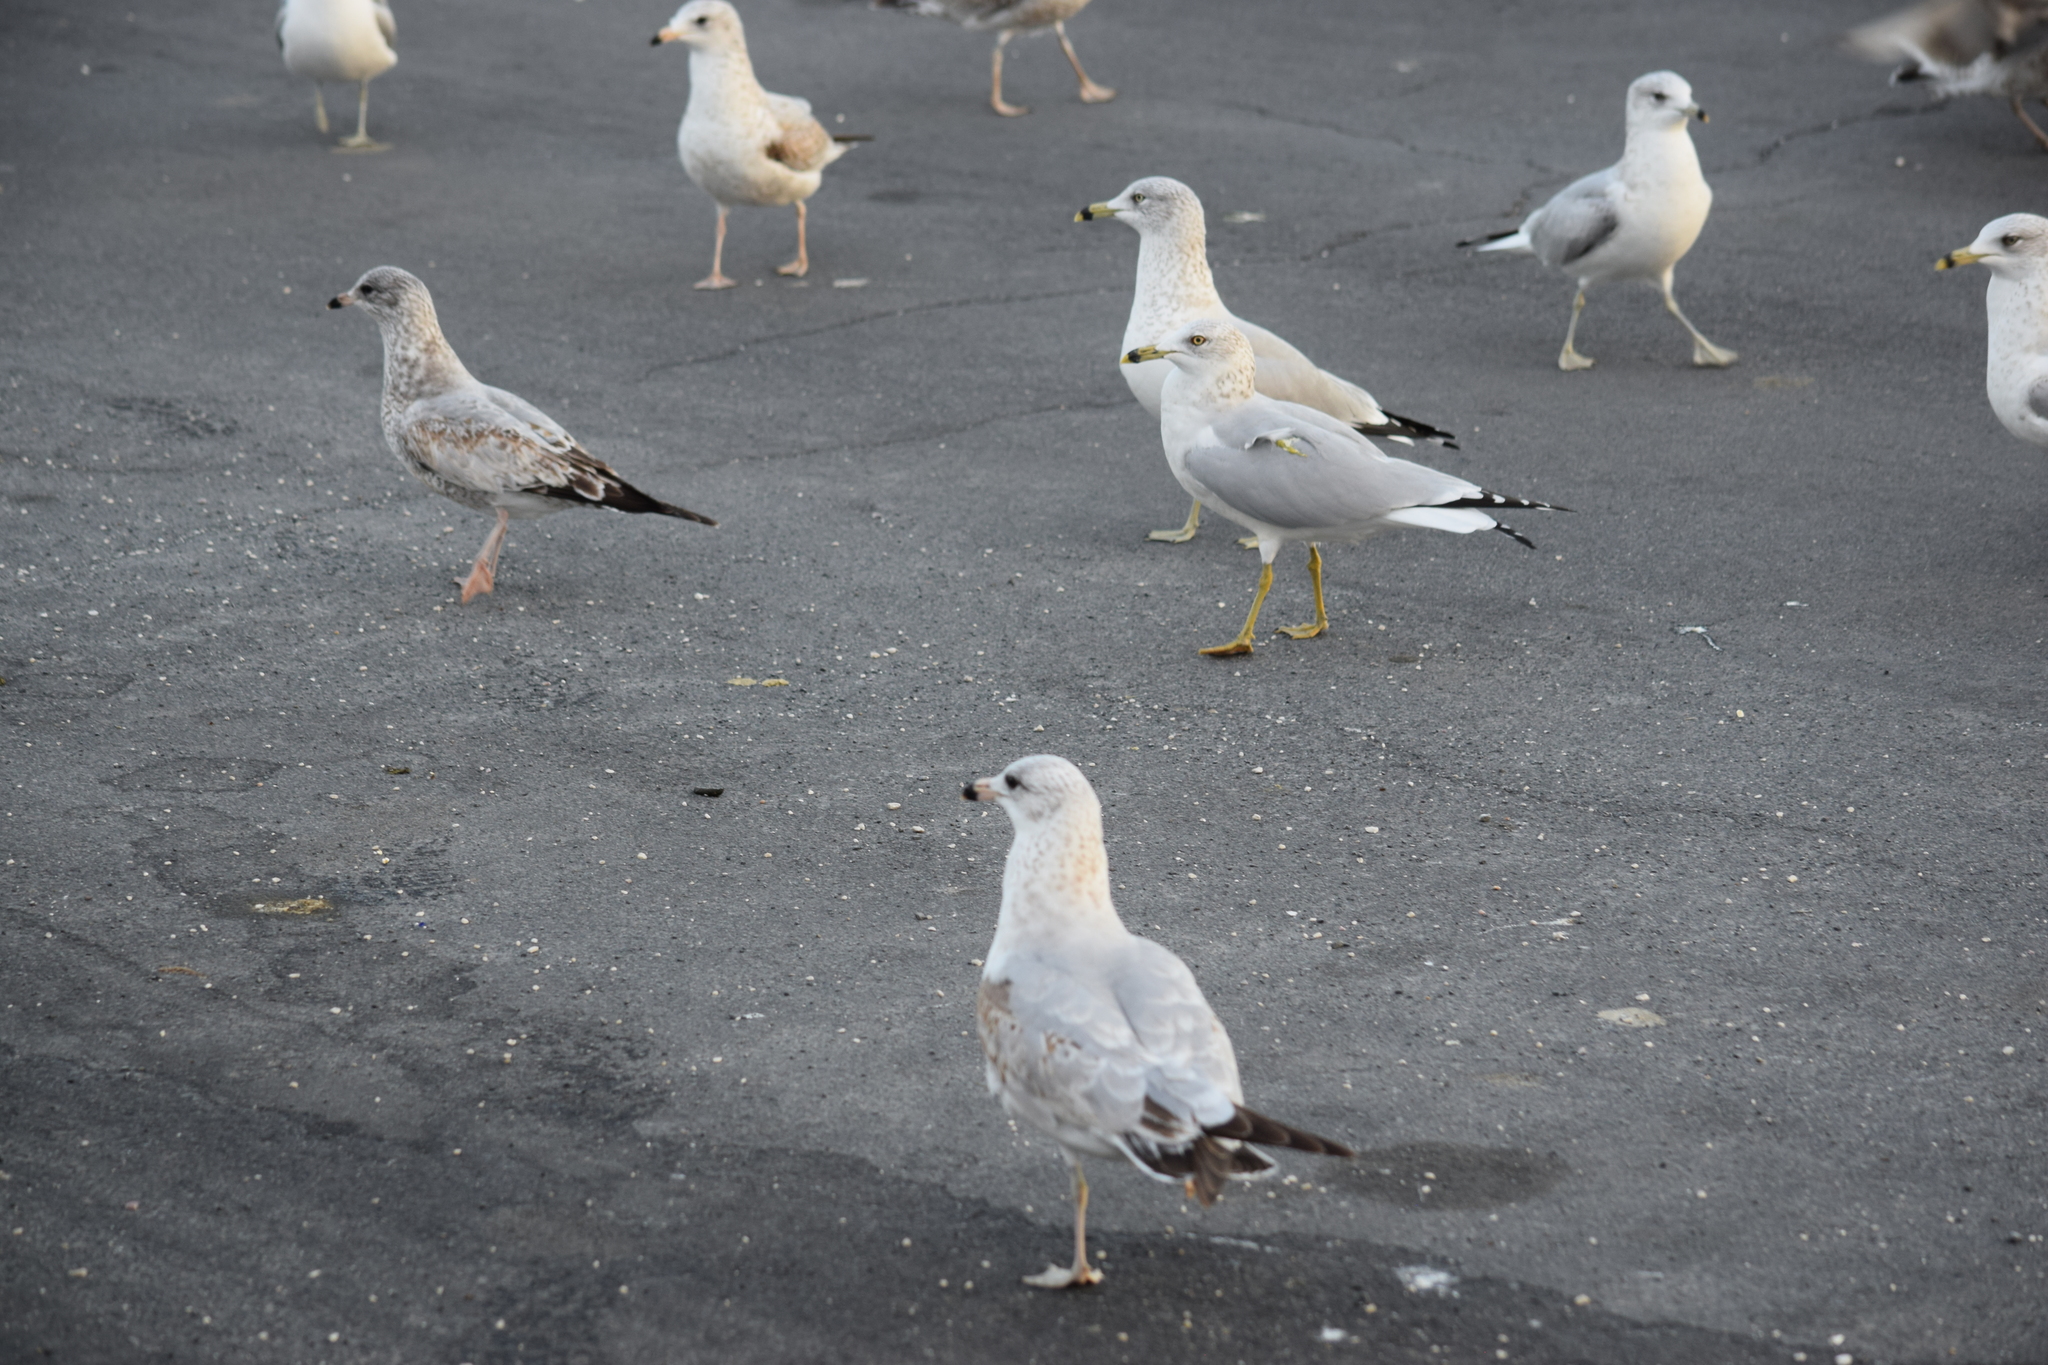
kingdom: Animalia
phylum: Chordata
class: Aves
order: Charadriiformes
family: Laridae
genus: Larus
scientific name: Larus delawarensis
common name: Ring-billed gull
